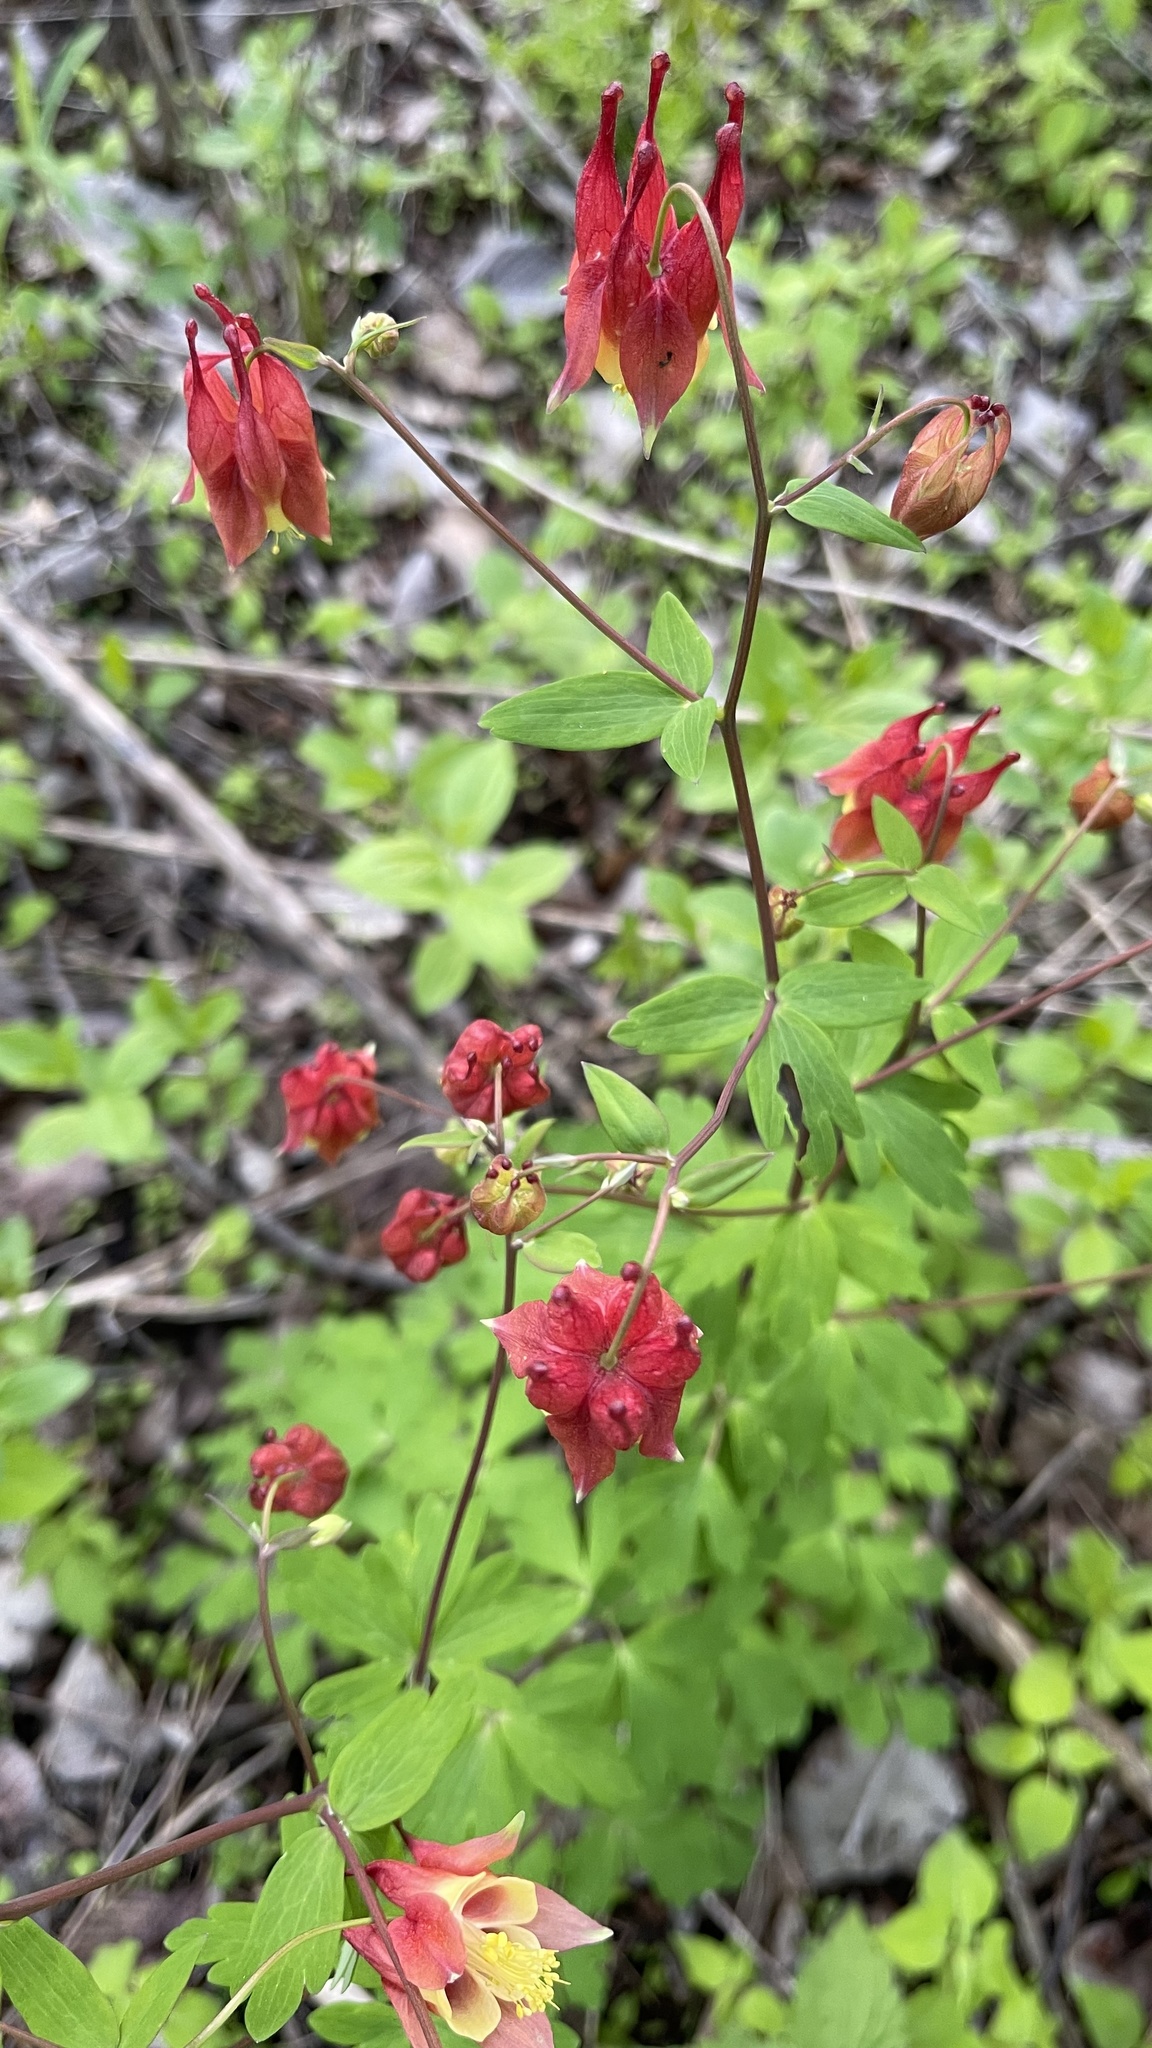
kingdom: Plantae
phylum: Tracheophyta
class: Magnoliopsida
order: Ranunculales
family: Ranunculaceae
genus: Aquilegia
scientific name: Aquilegia canadensis
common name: American columbine
